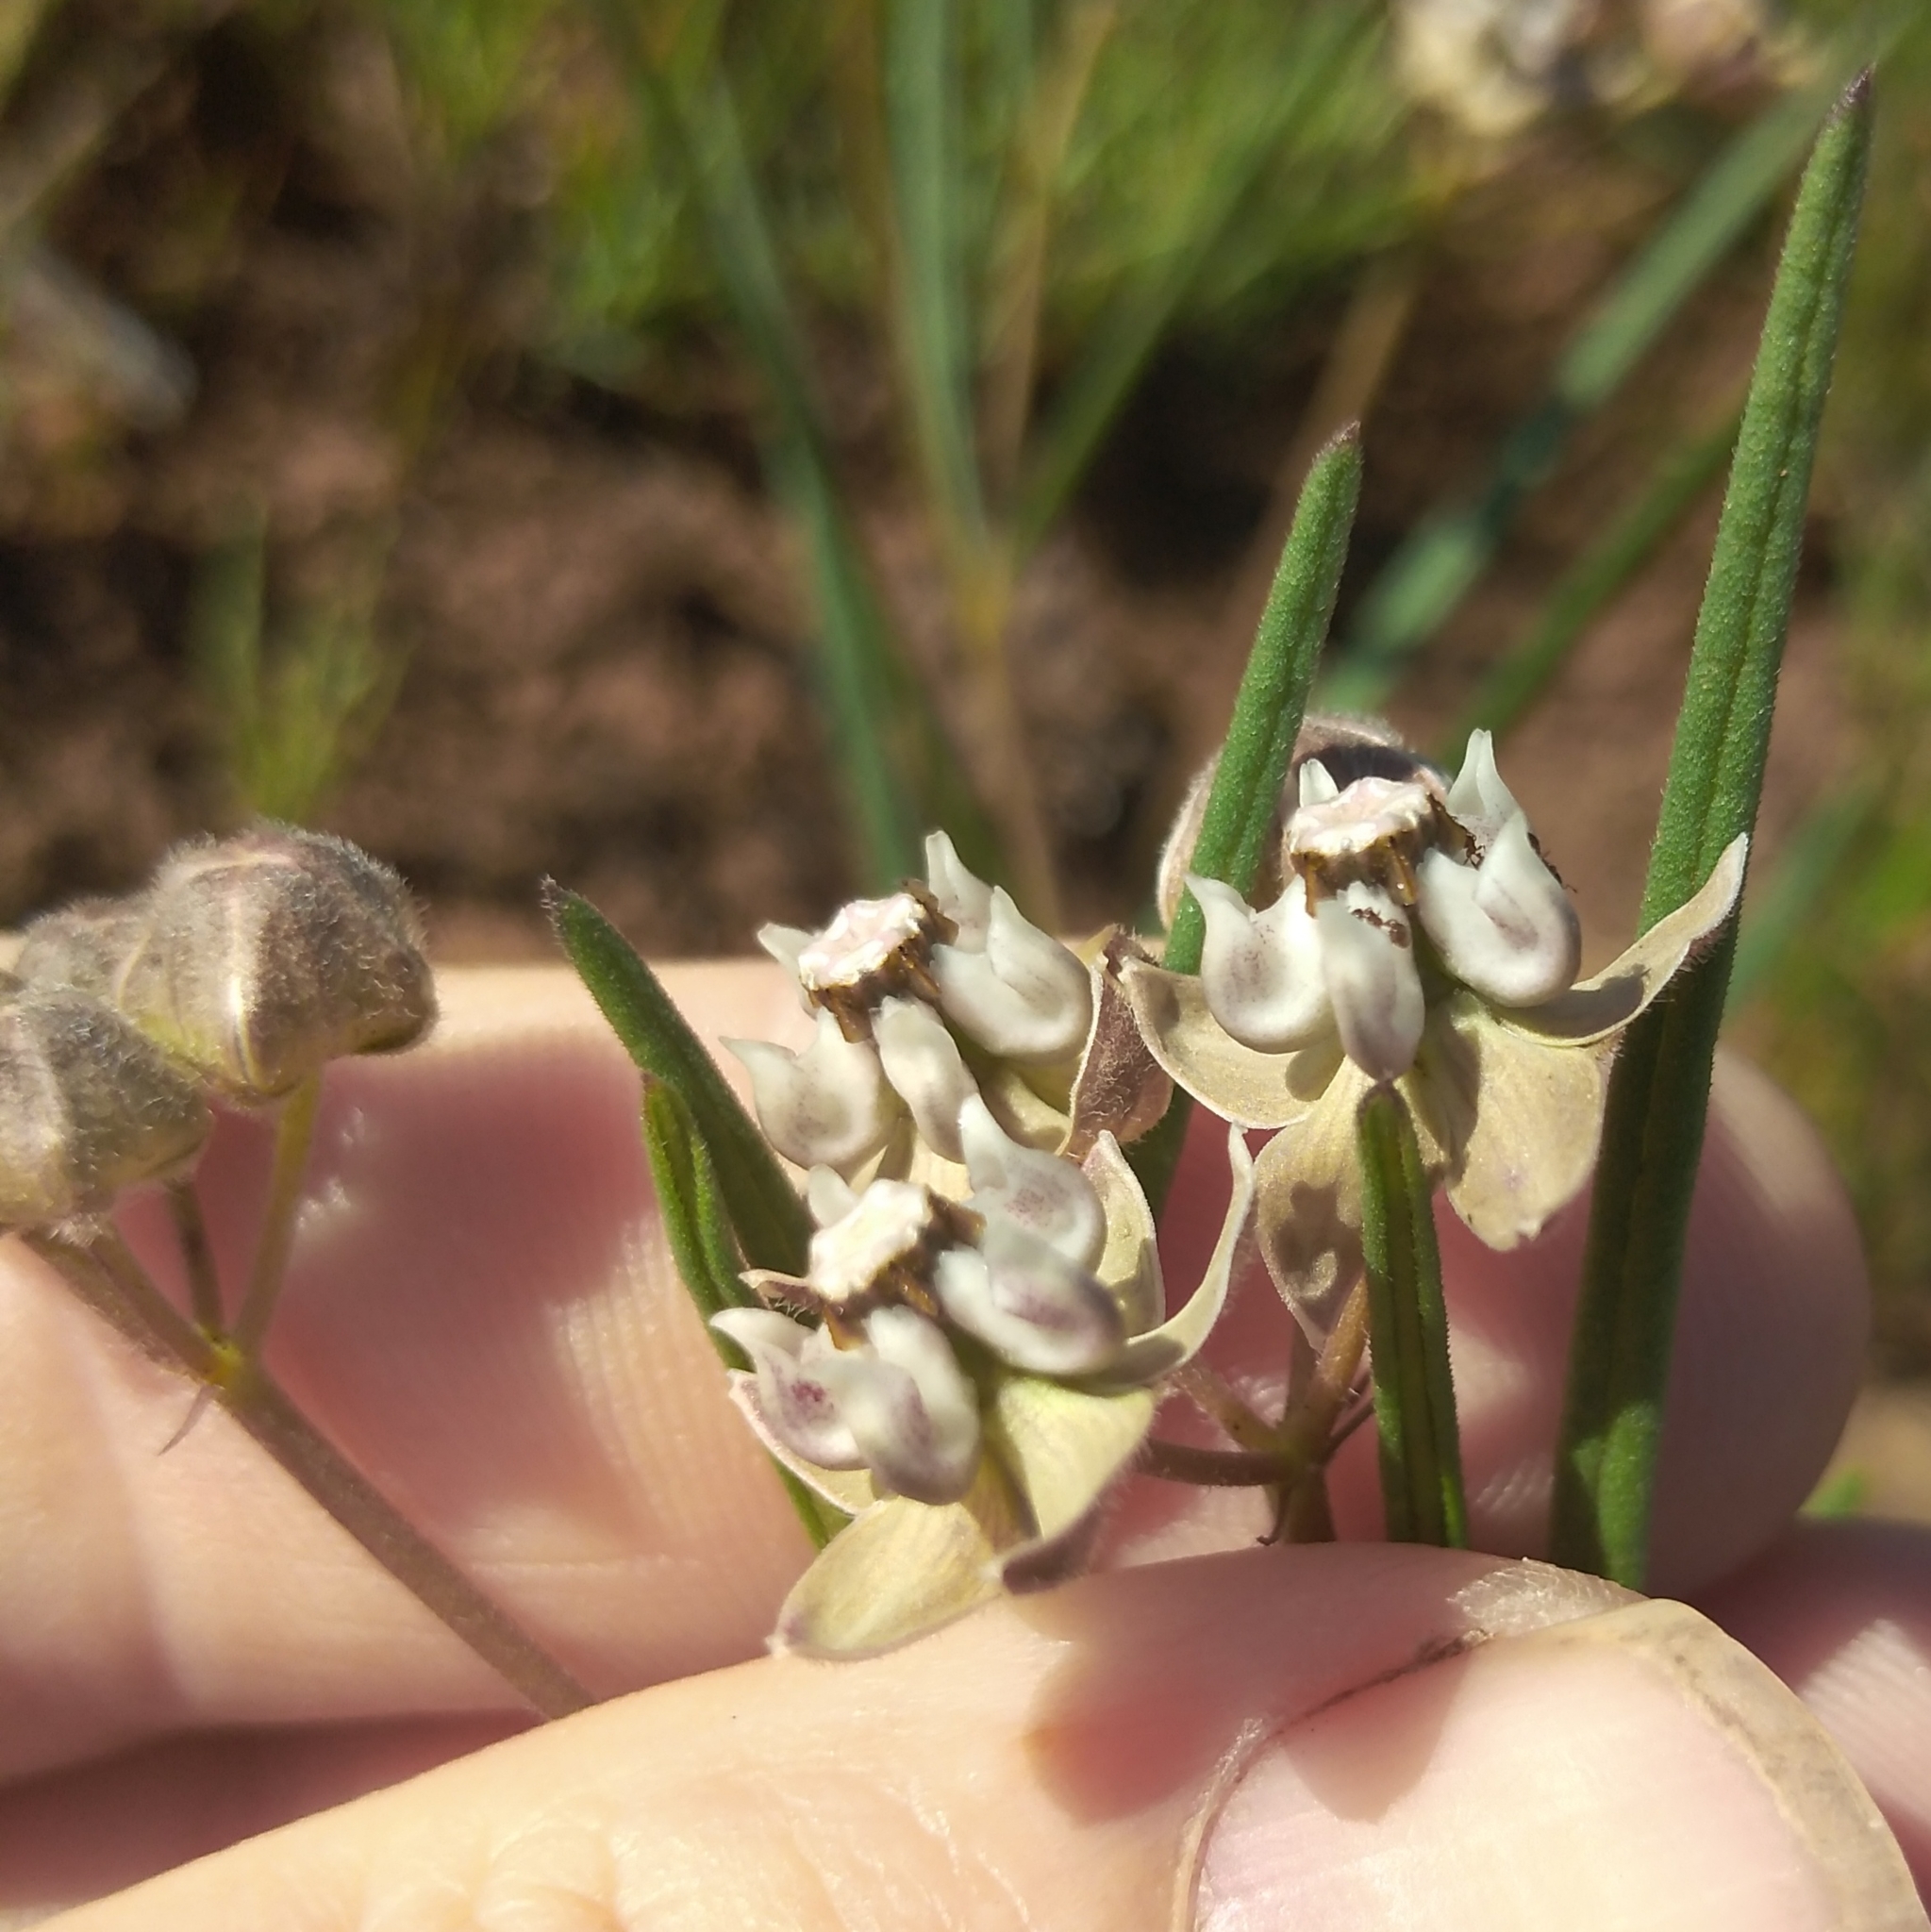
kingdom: Plantae
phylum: Tracheophyta
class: Magnoliopsida
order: Gentianales
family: Apocynaceae
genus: Asclepias
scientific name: Asclepias cucullata
